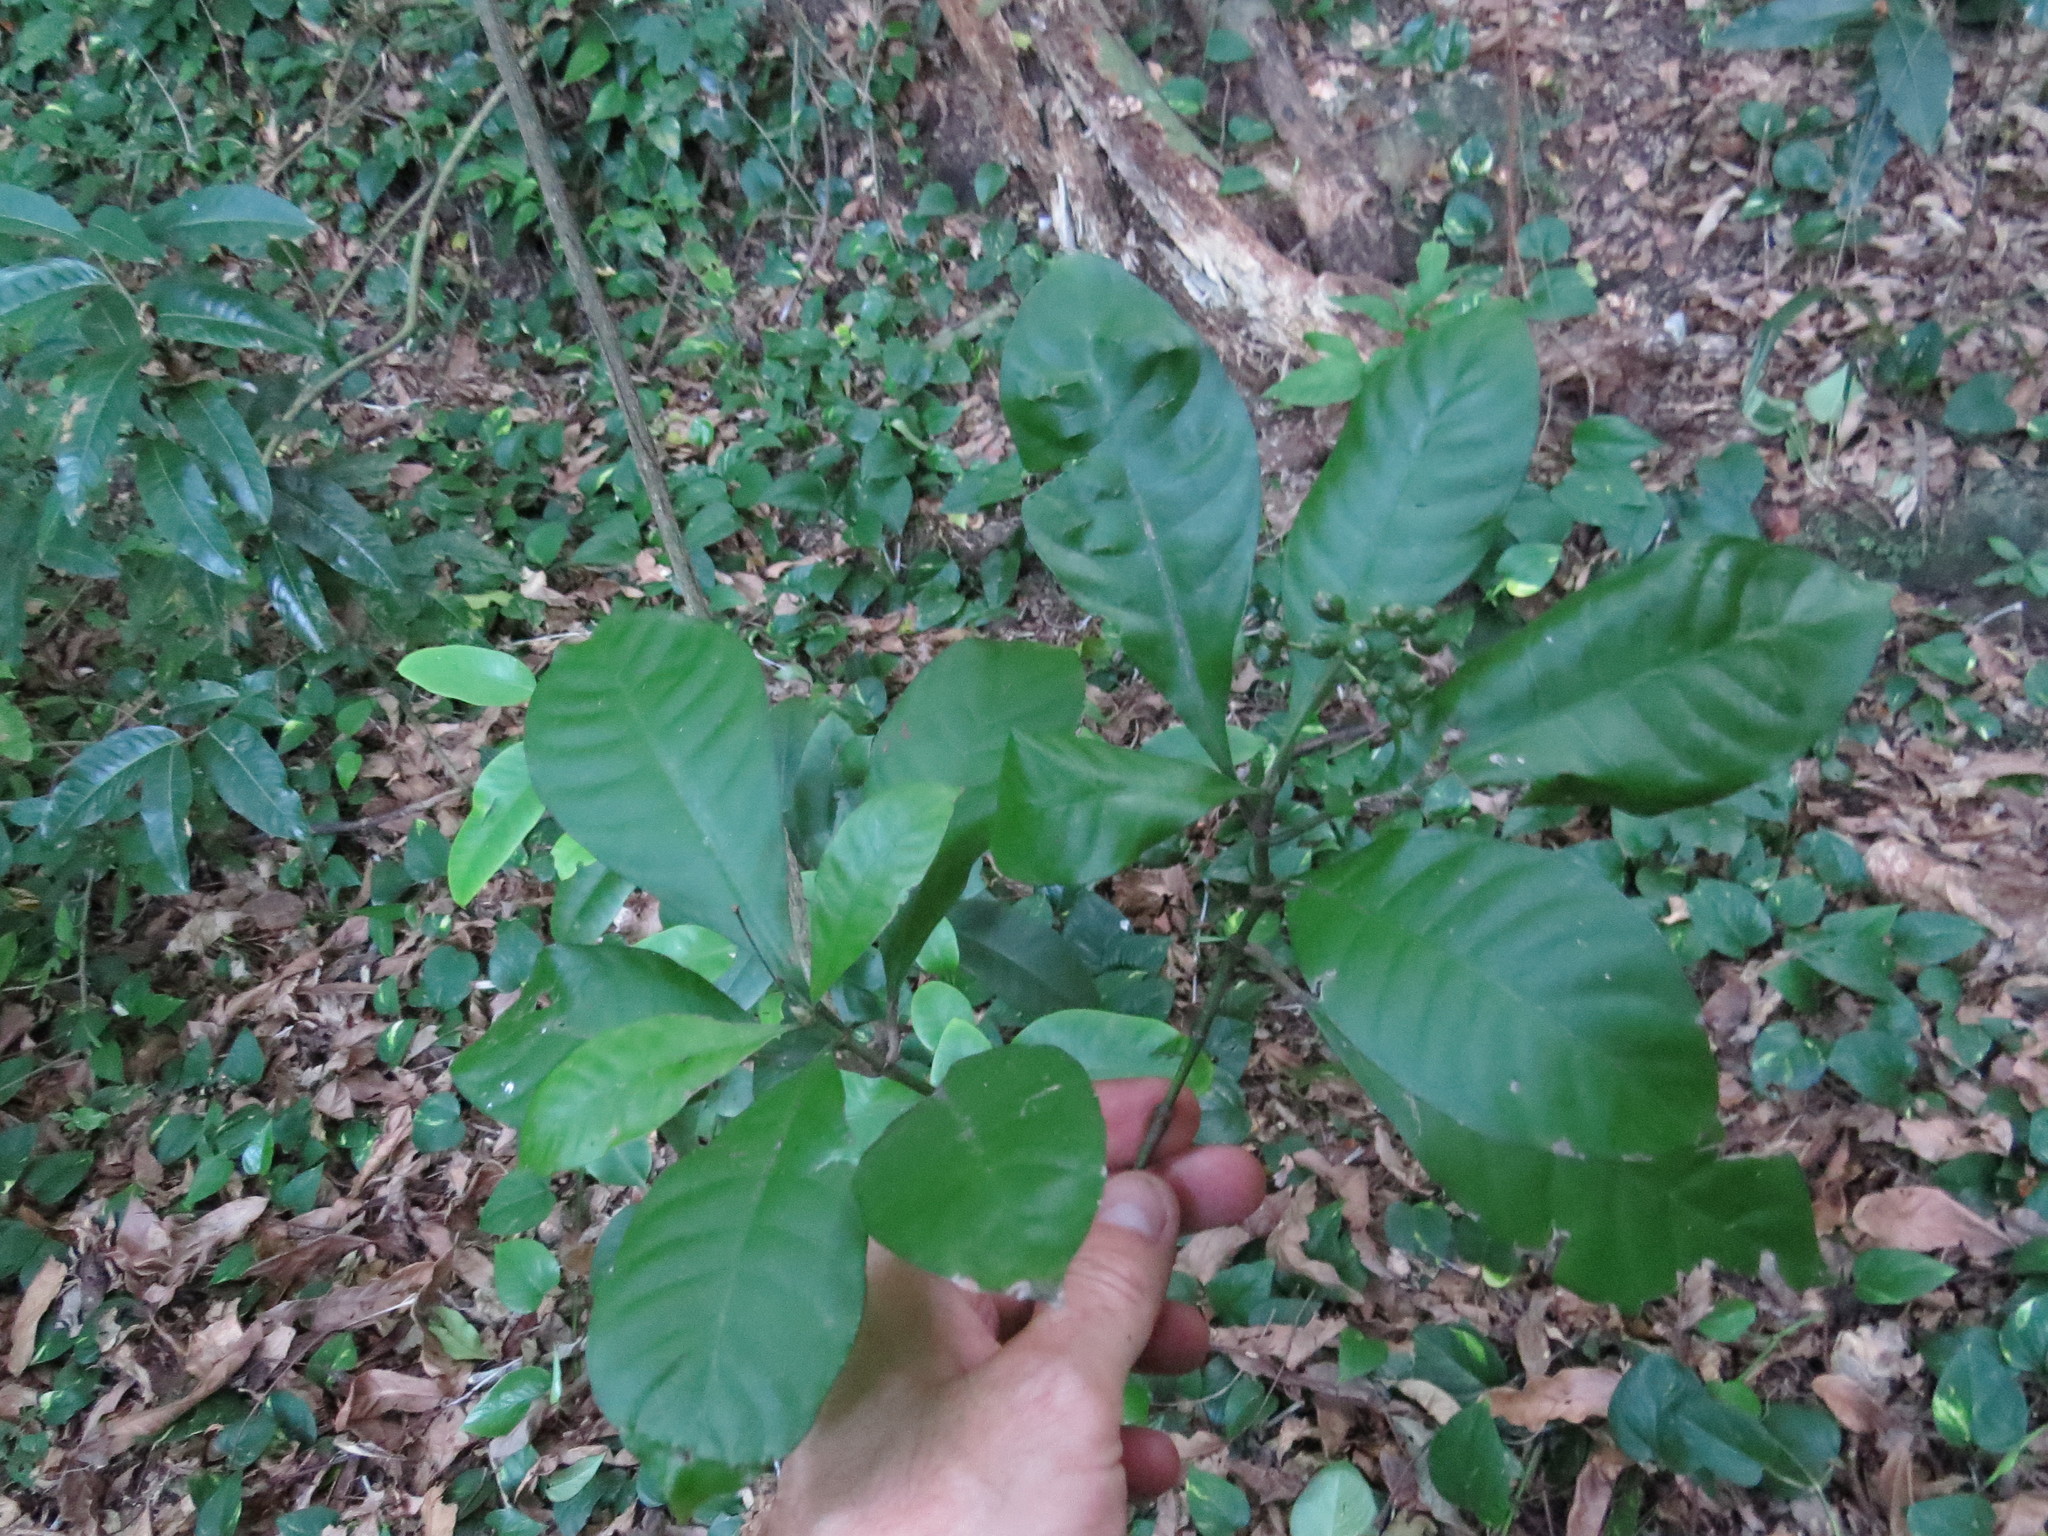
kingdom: Plantae
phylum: Tracheophyta
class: Magnoliopsida
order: Gentianales
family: Rubiaceae
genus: Psychotria
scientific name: Psychotria carthagenensis
